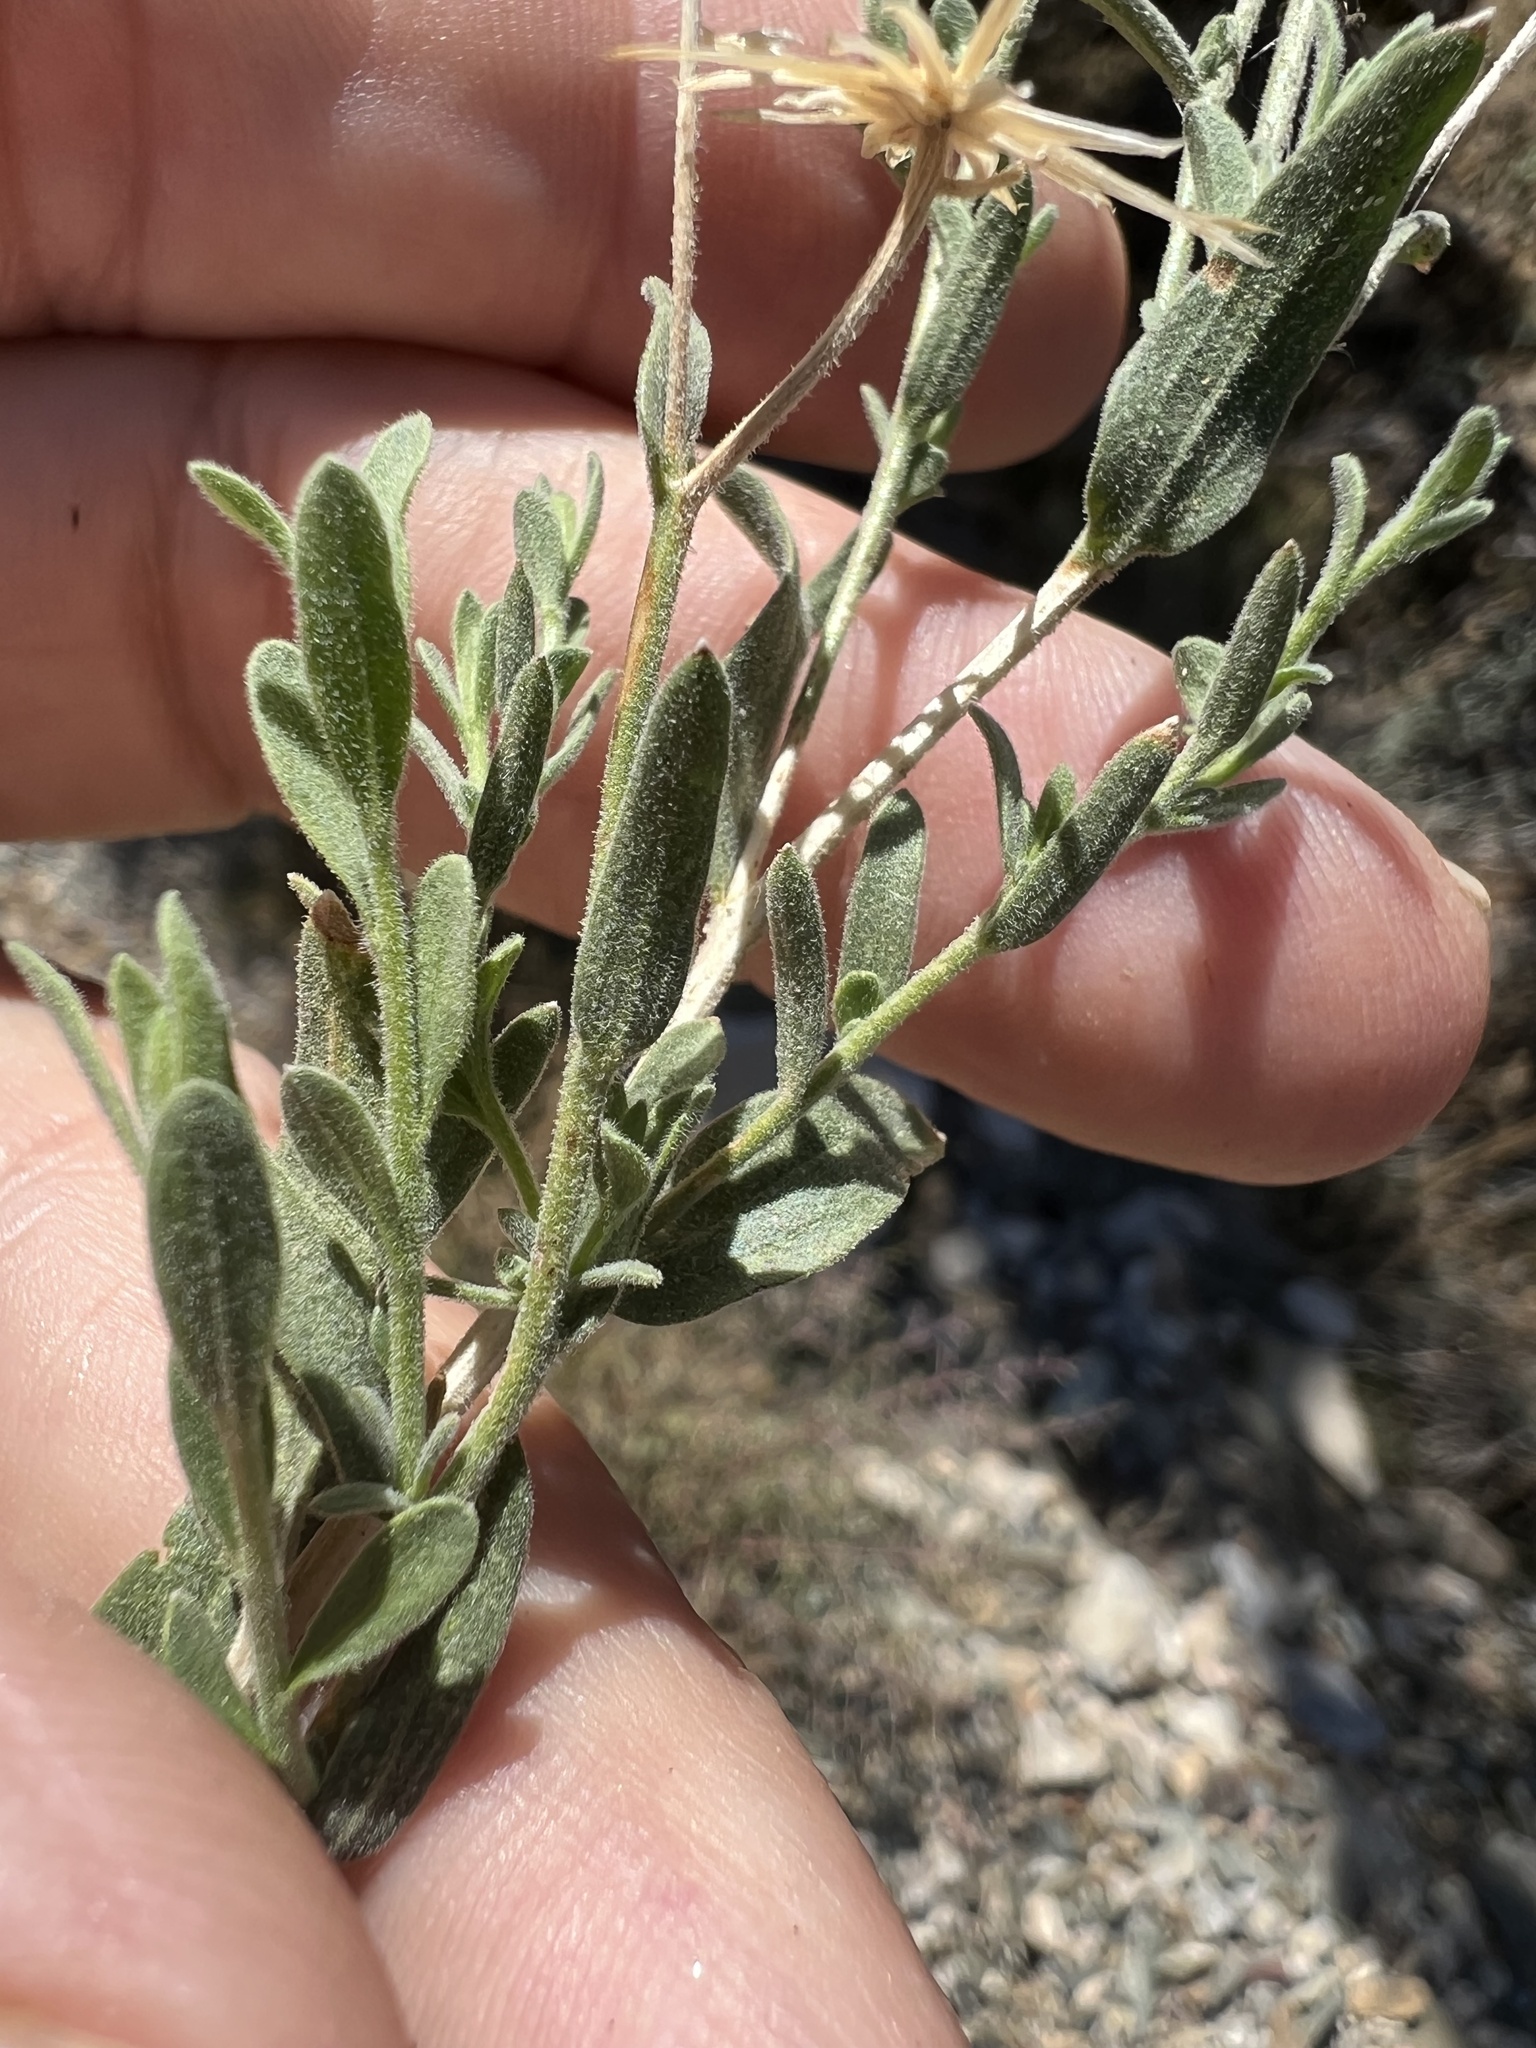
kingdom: Plantae
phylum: Tracheophyta
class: Magnoliopsida
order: Asterales
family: Asteraceae
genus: Brickellia
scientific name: Brickellia oblongifolia
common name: Mojave brickellbush
